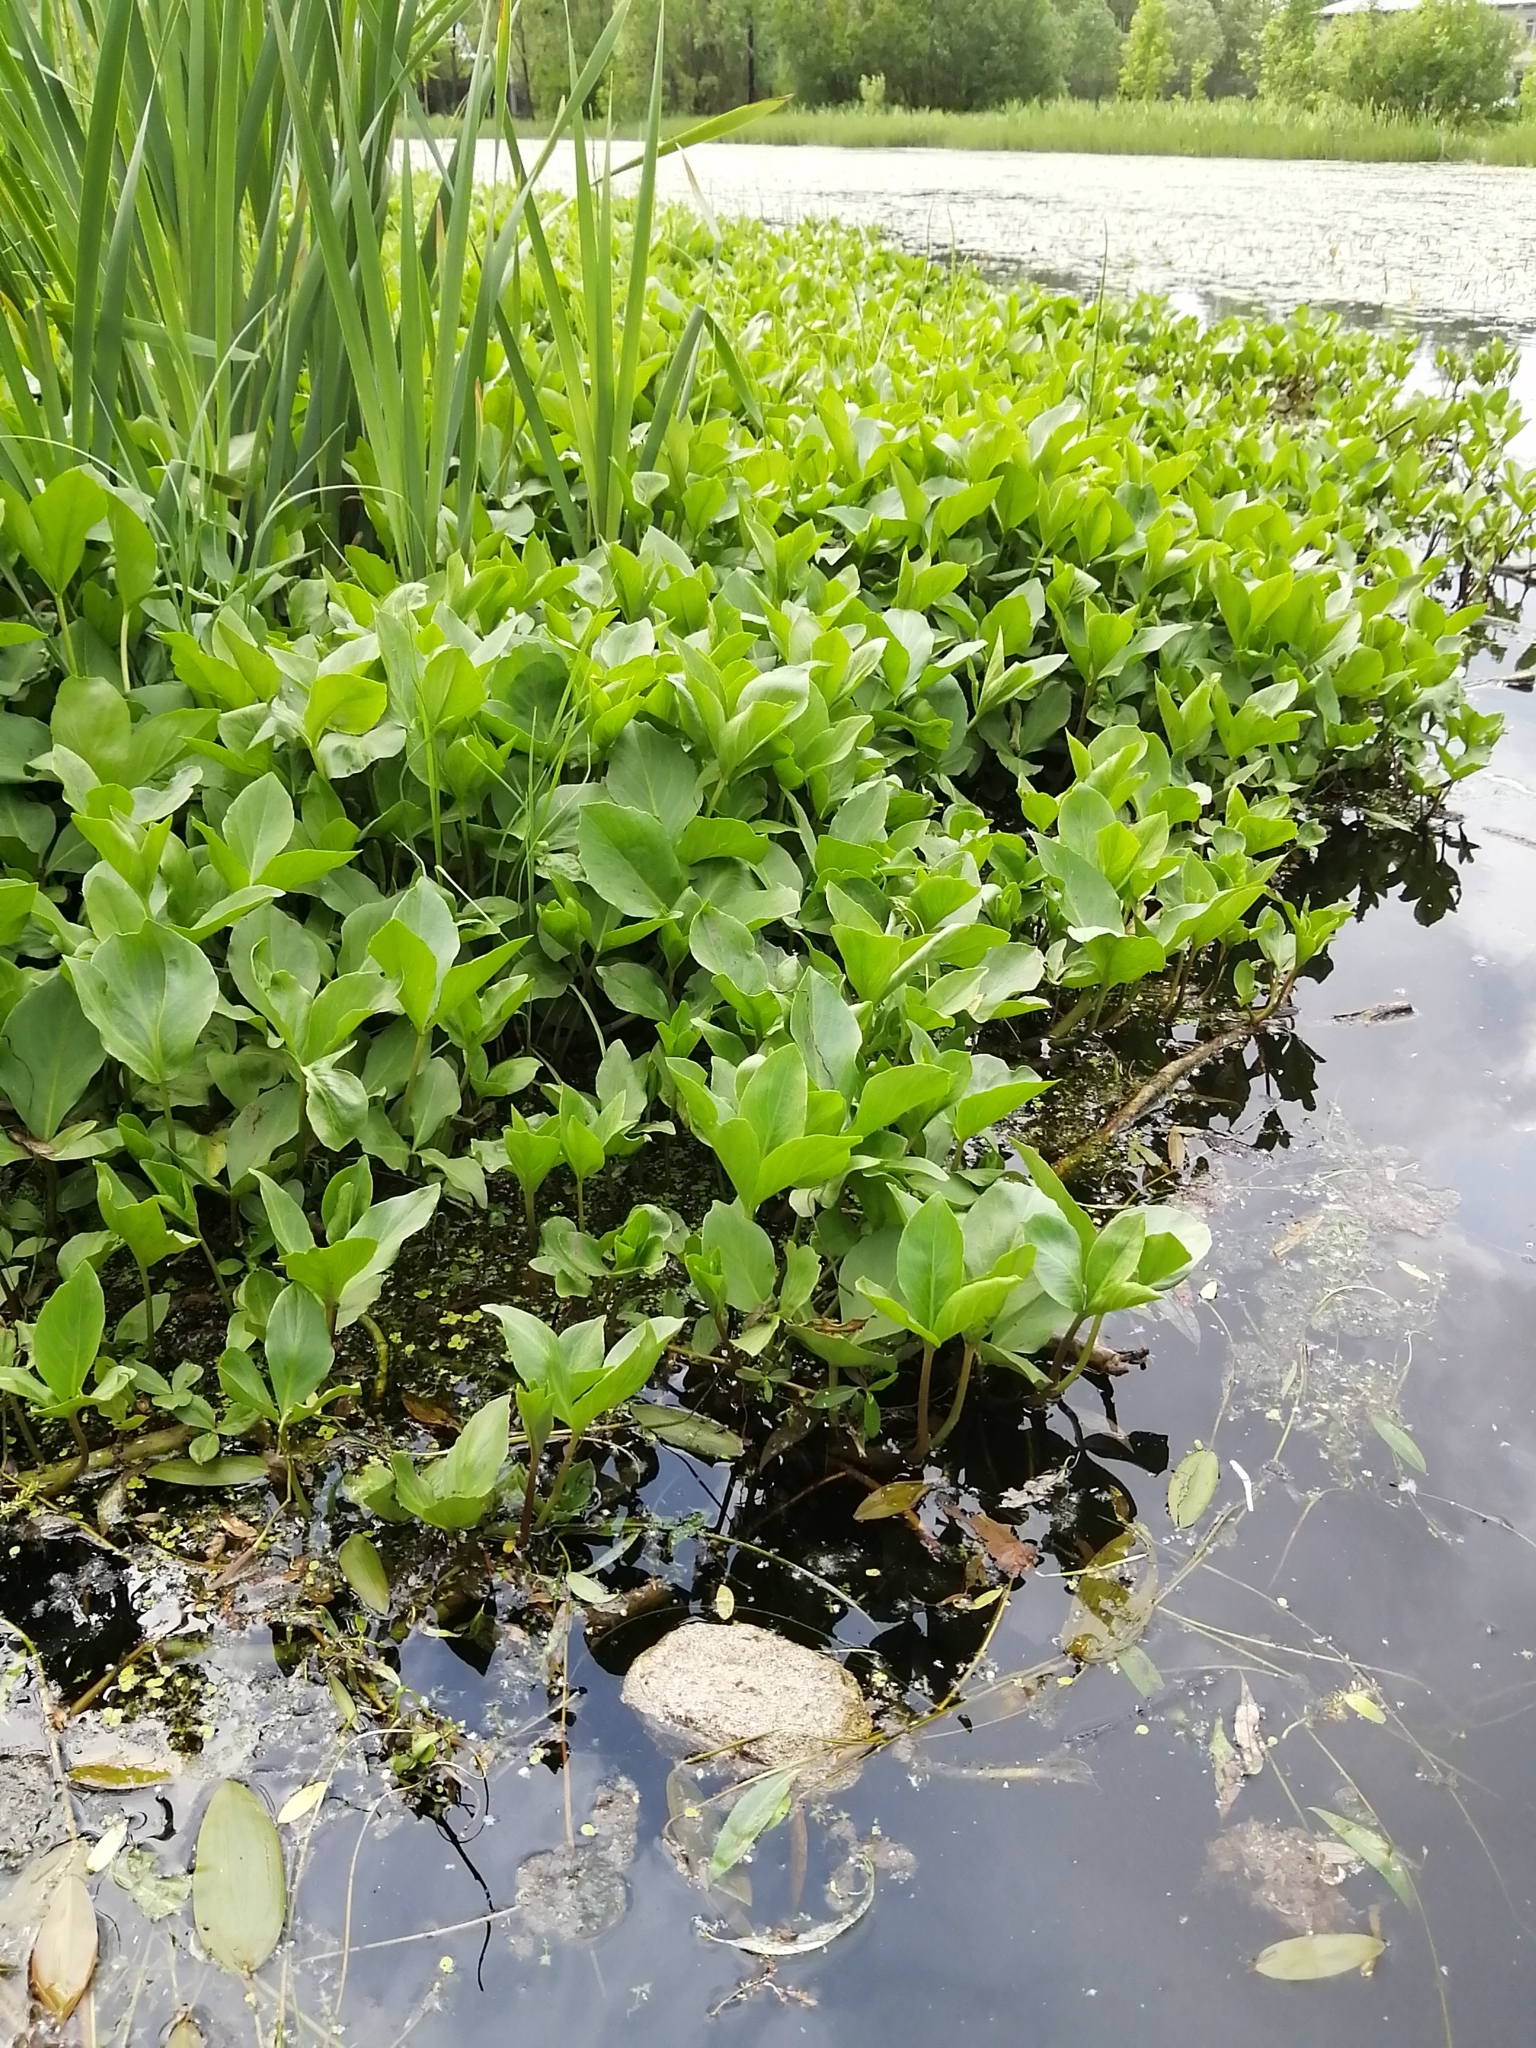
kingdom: Plantae
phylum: Tracheophyta
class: Magnoliopsida
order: Asterales
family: Menyanthaceae
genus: Menyanthes
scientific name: Menyanthes trifoliata
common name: Bogbean
